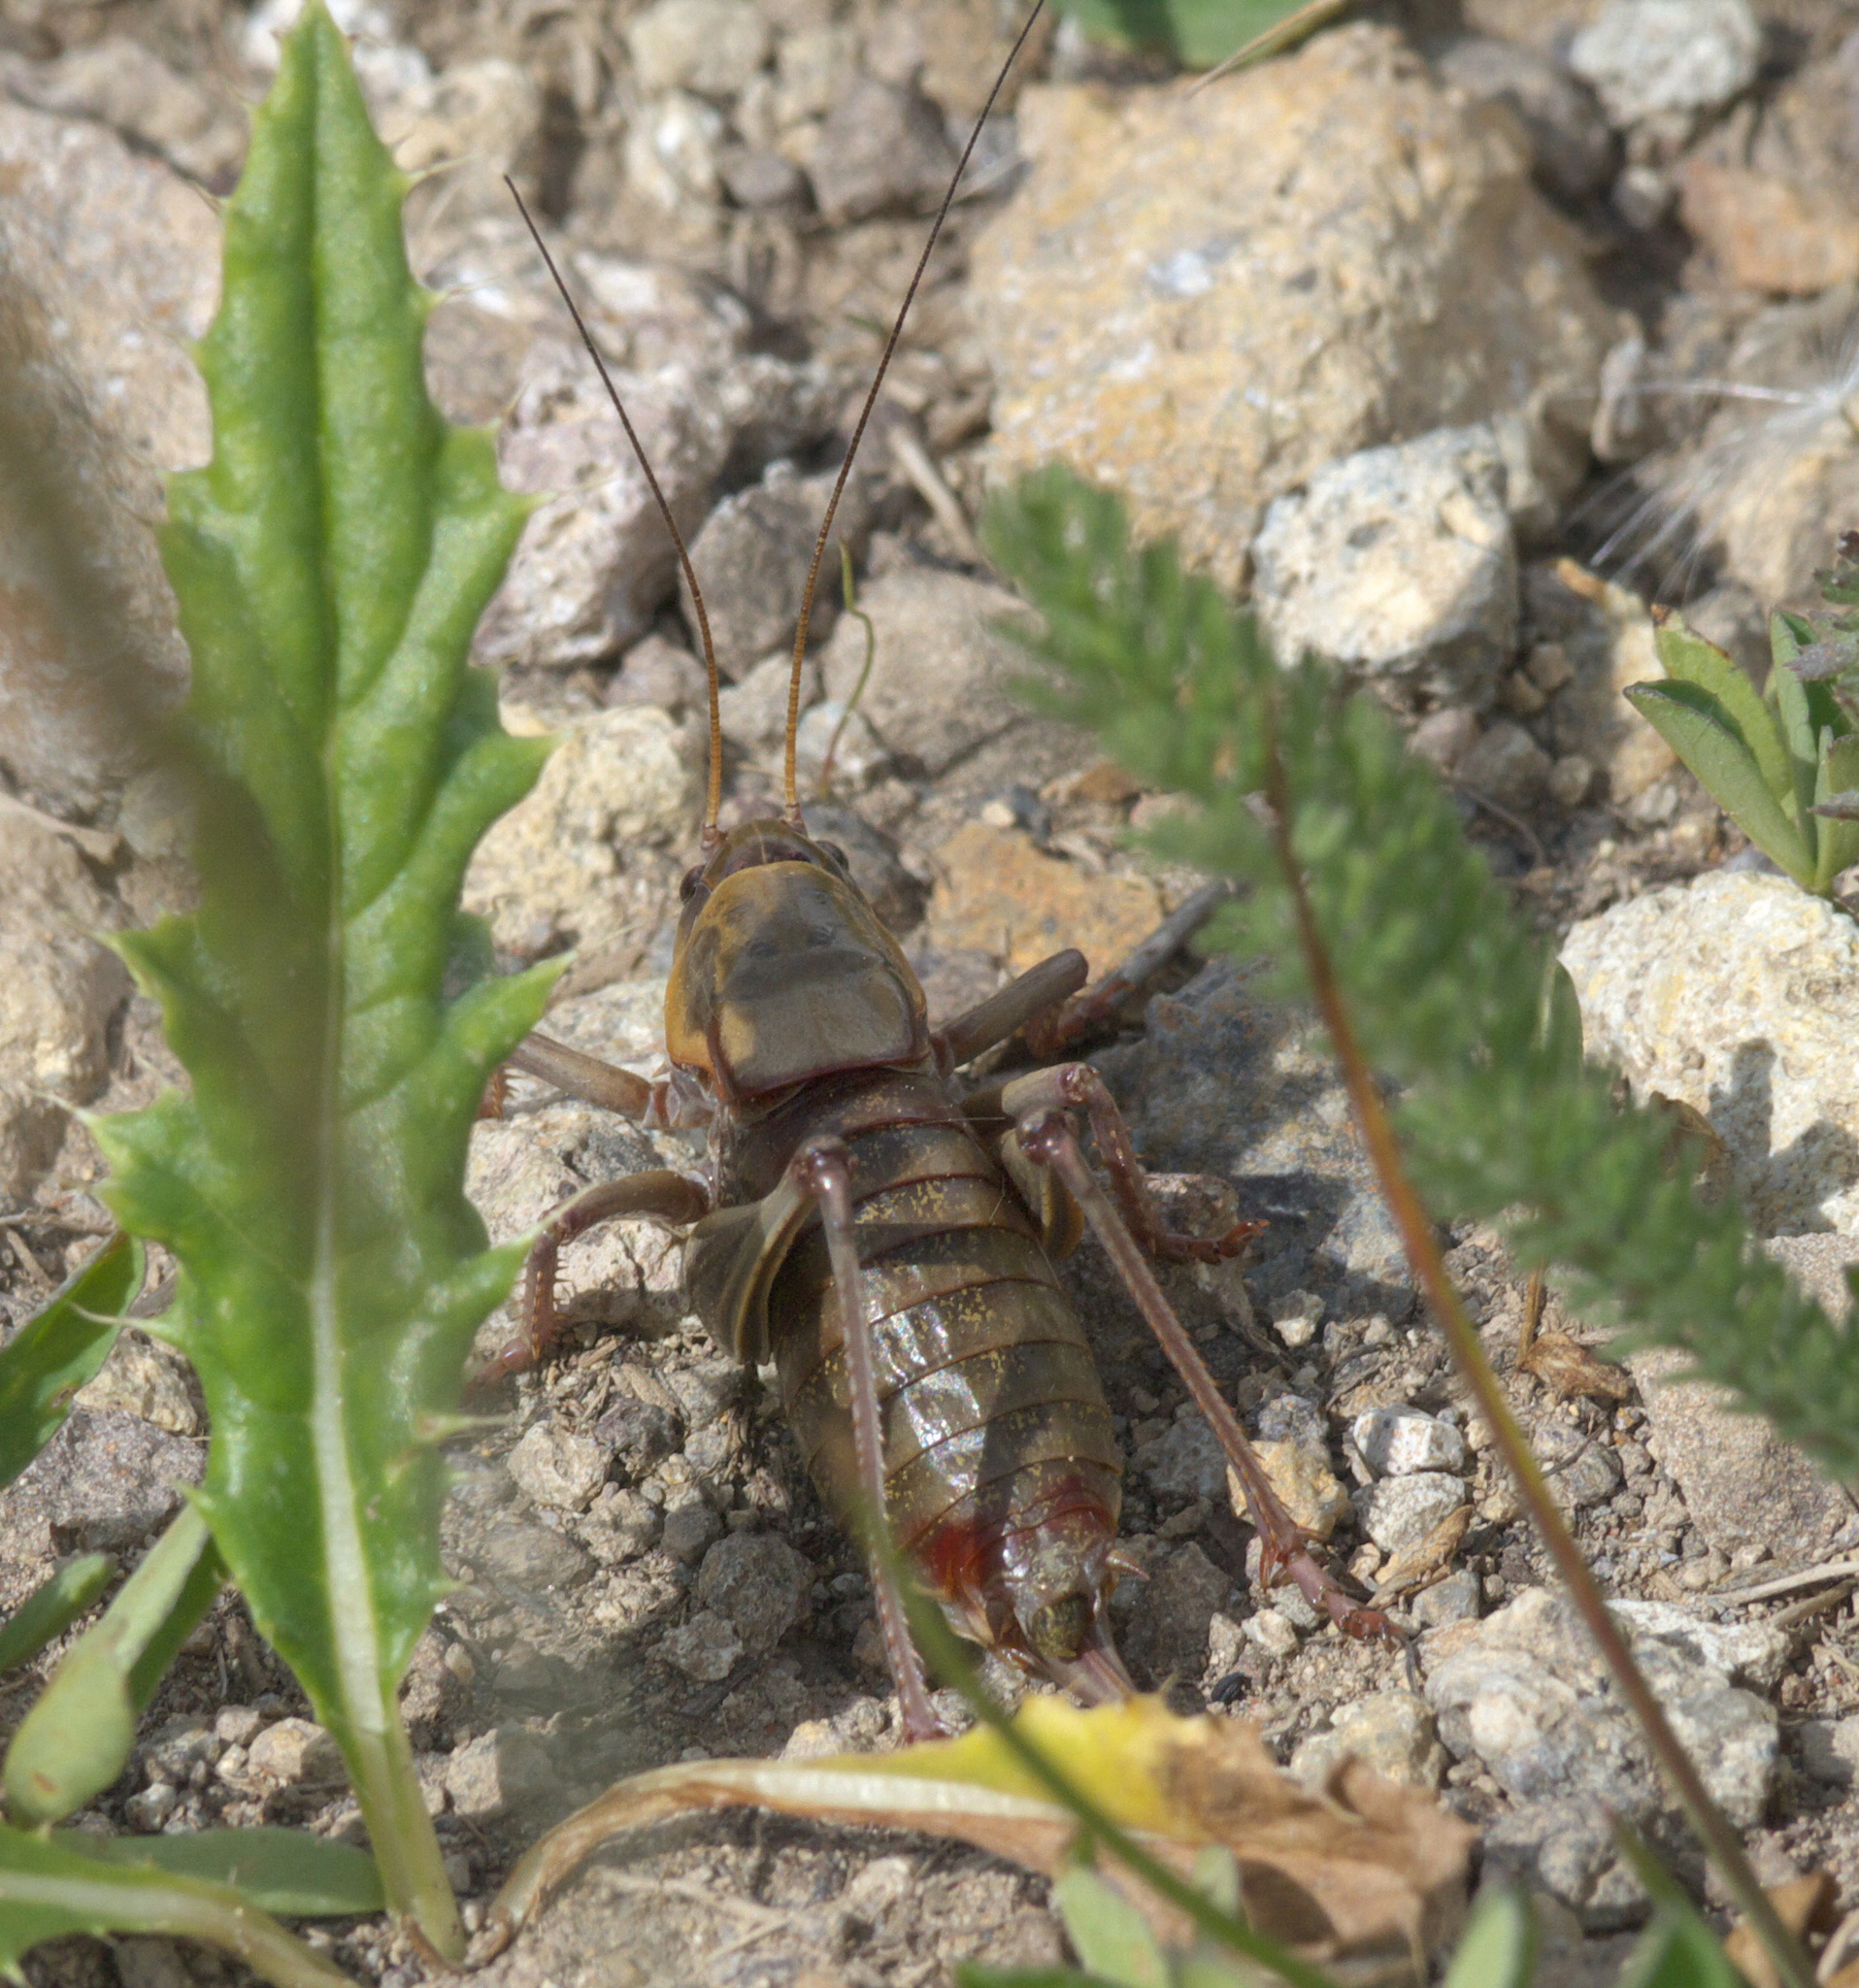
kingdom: Animalia
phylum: Arthropoda
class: Insecta
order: Orthoptera
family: Tettigoniidae
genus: Anabrus
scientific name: Anabrus simplex
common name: Mormon cricket
